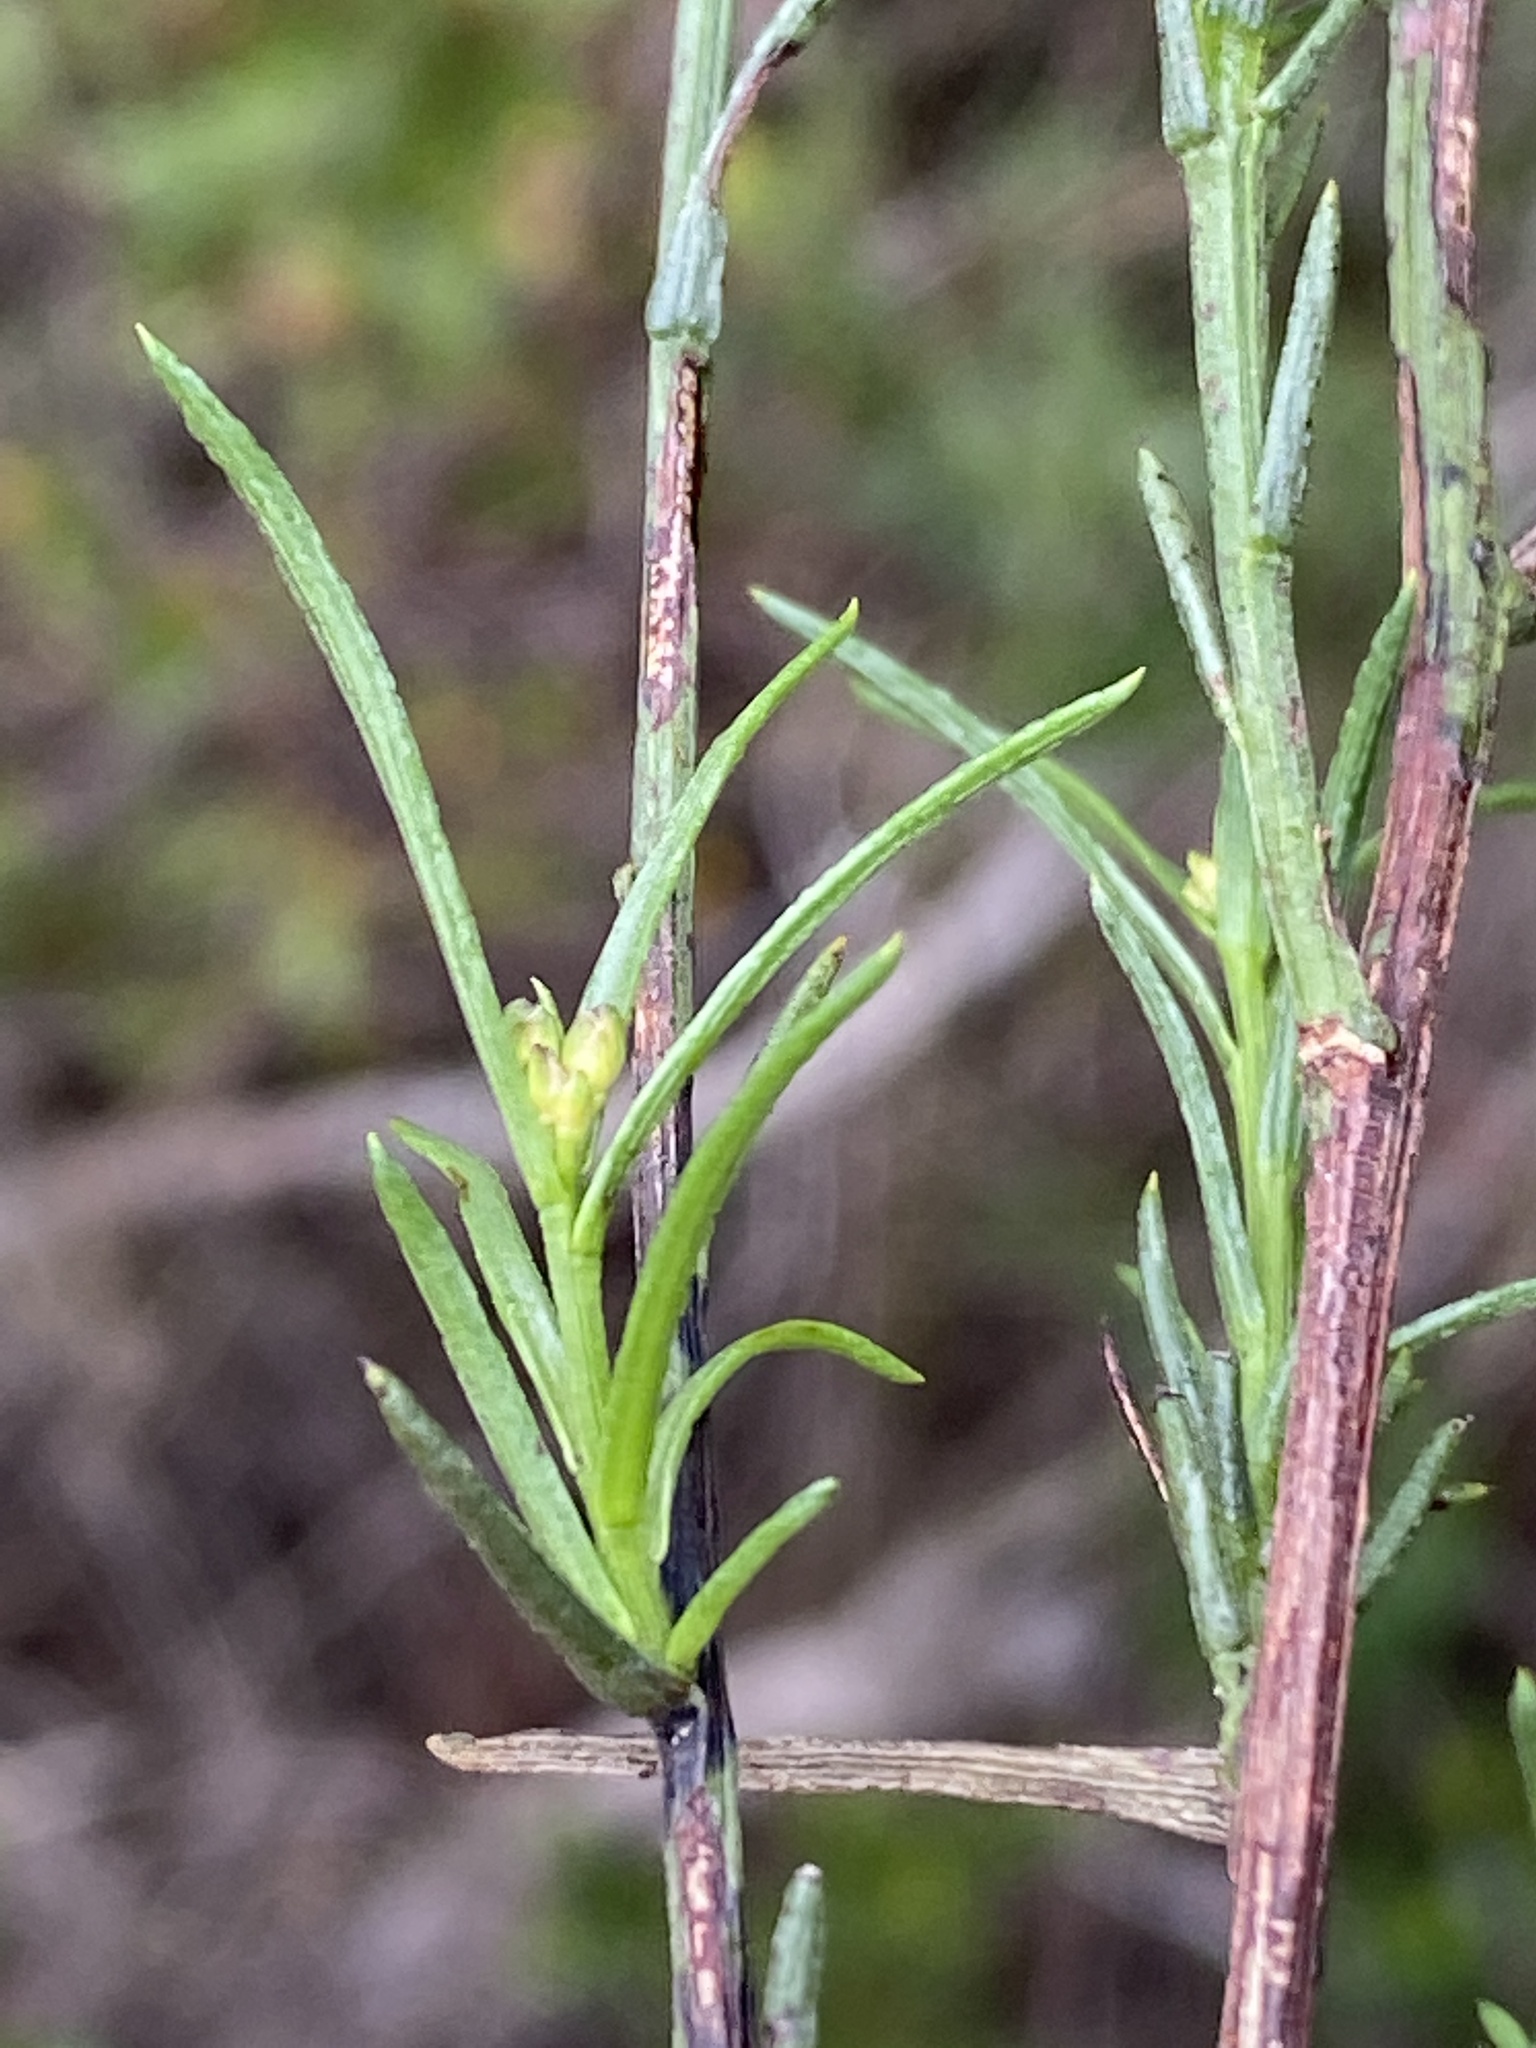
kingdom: Plantae
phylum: Tracheophyta
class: Magnoliopsida
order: Brassicales
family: Brassicaceae
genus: Heliophila
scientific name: Heliophila scoparia
